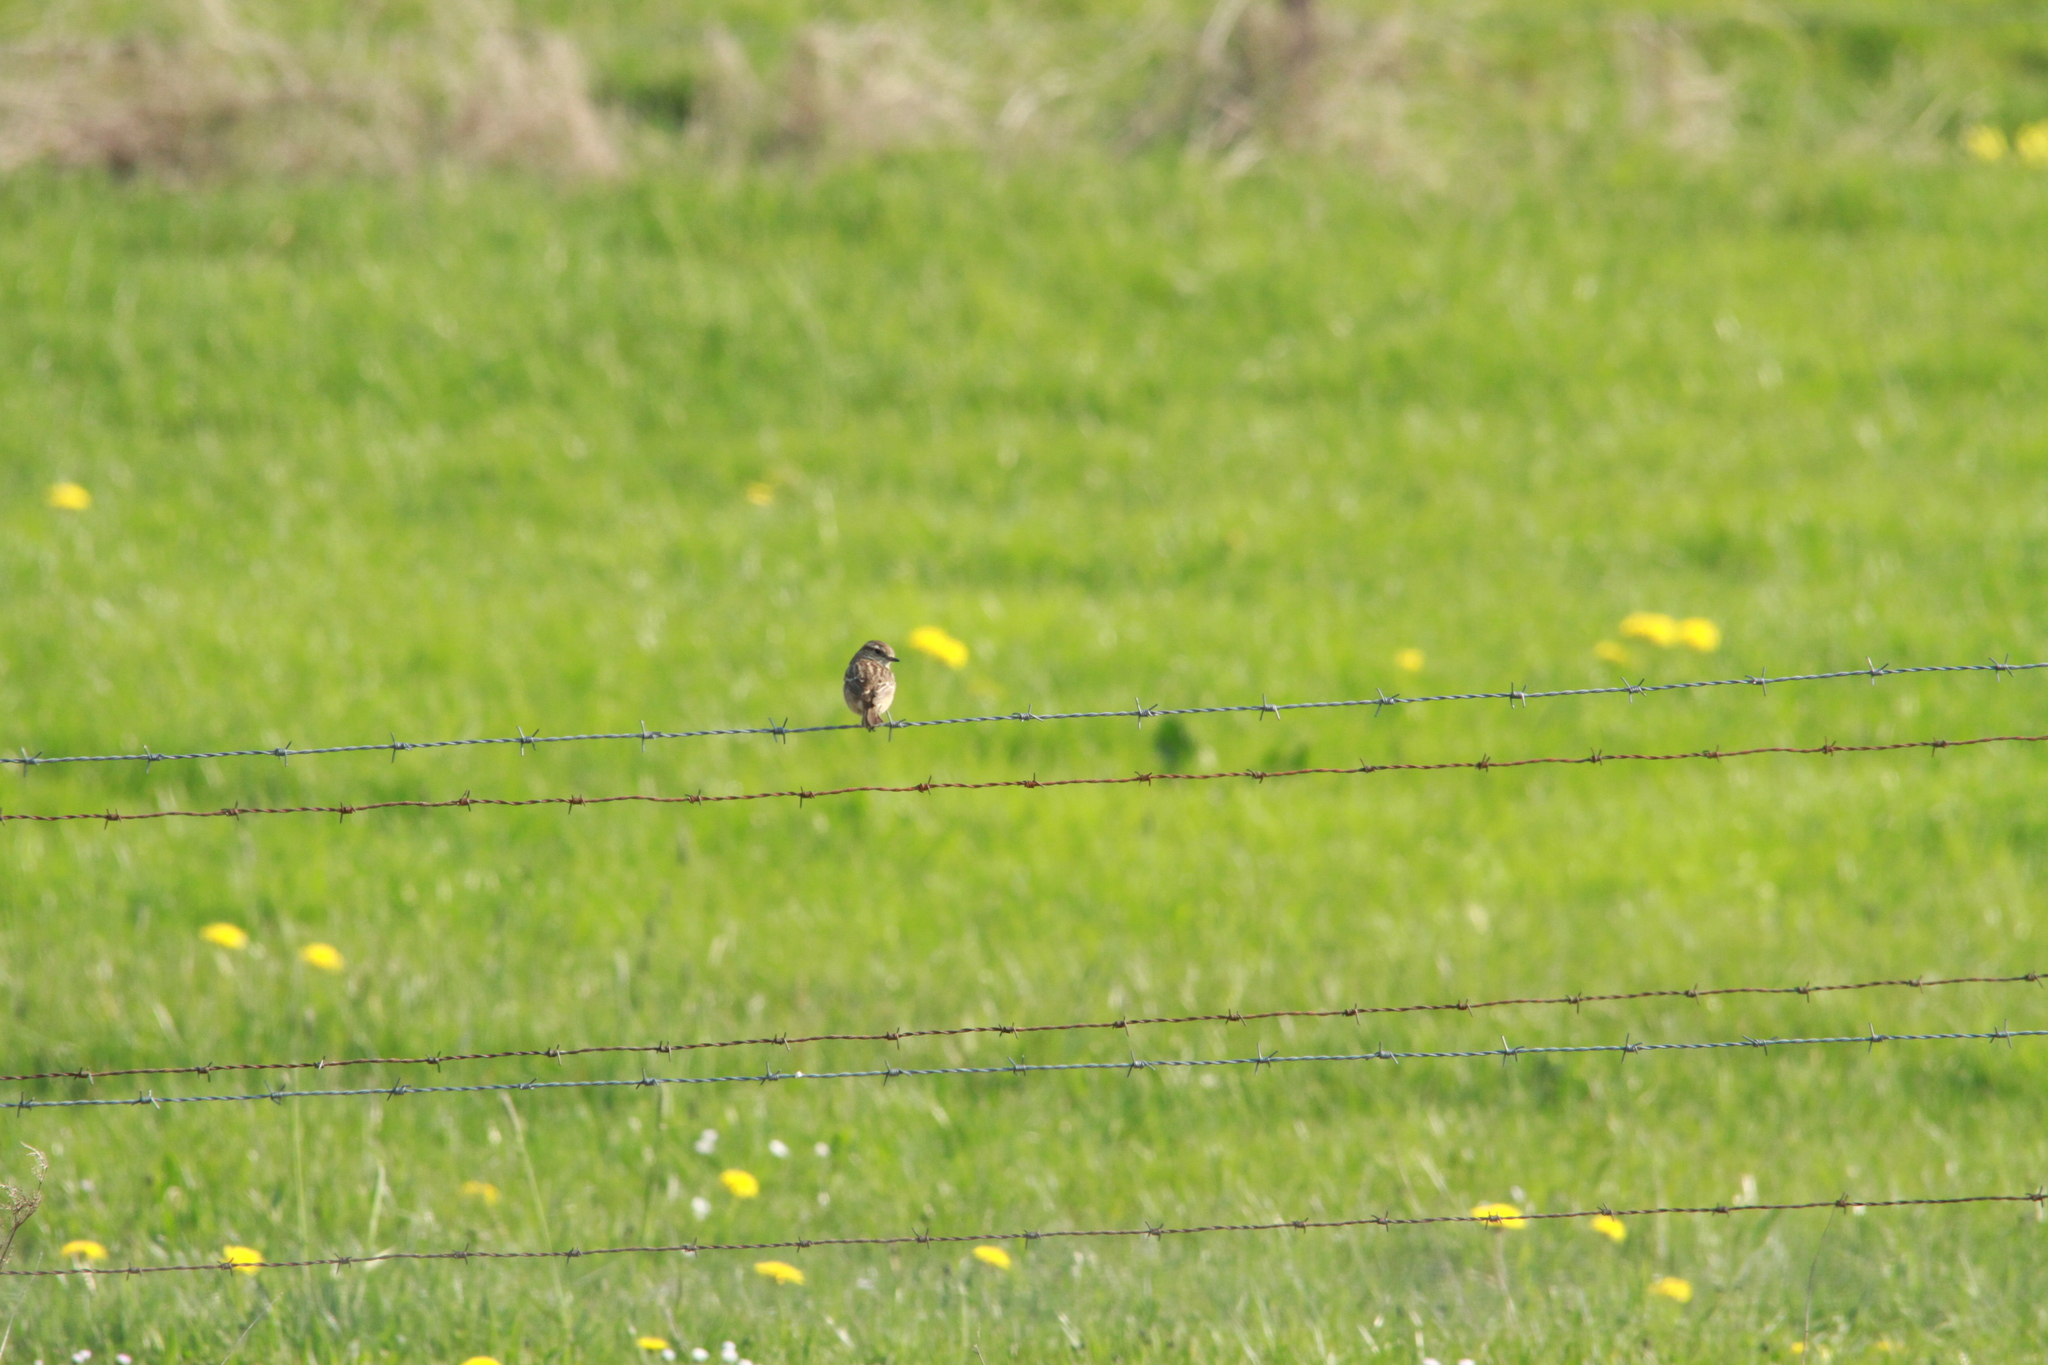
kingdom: Animalia
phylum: Chordata
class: Aves
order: Passeriformes
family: Muscicapidae
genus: Saxicola
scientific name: Saxicola rubicola
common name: European stonechat
